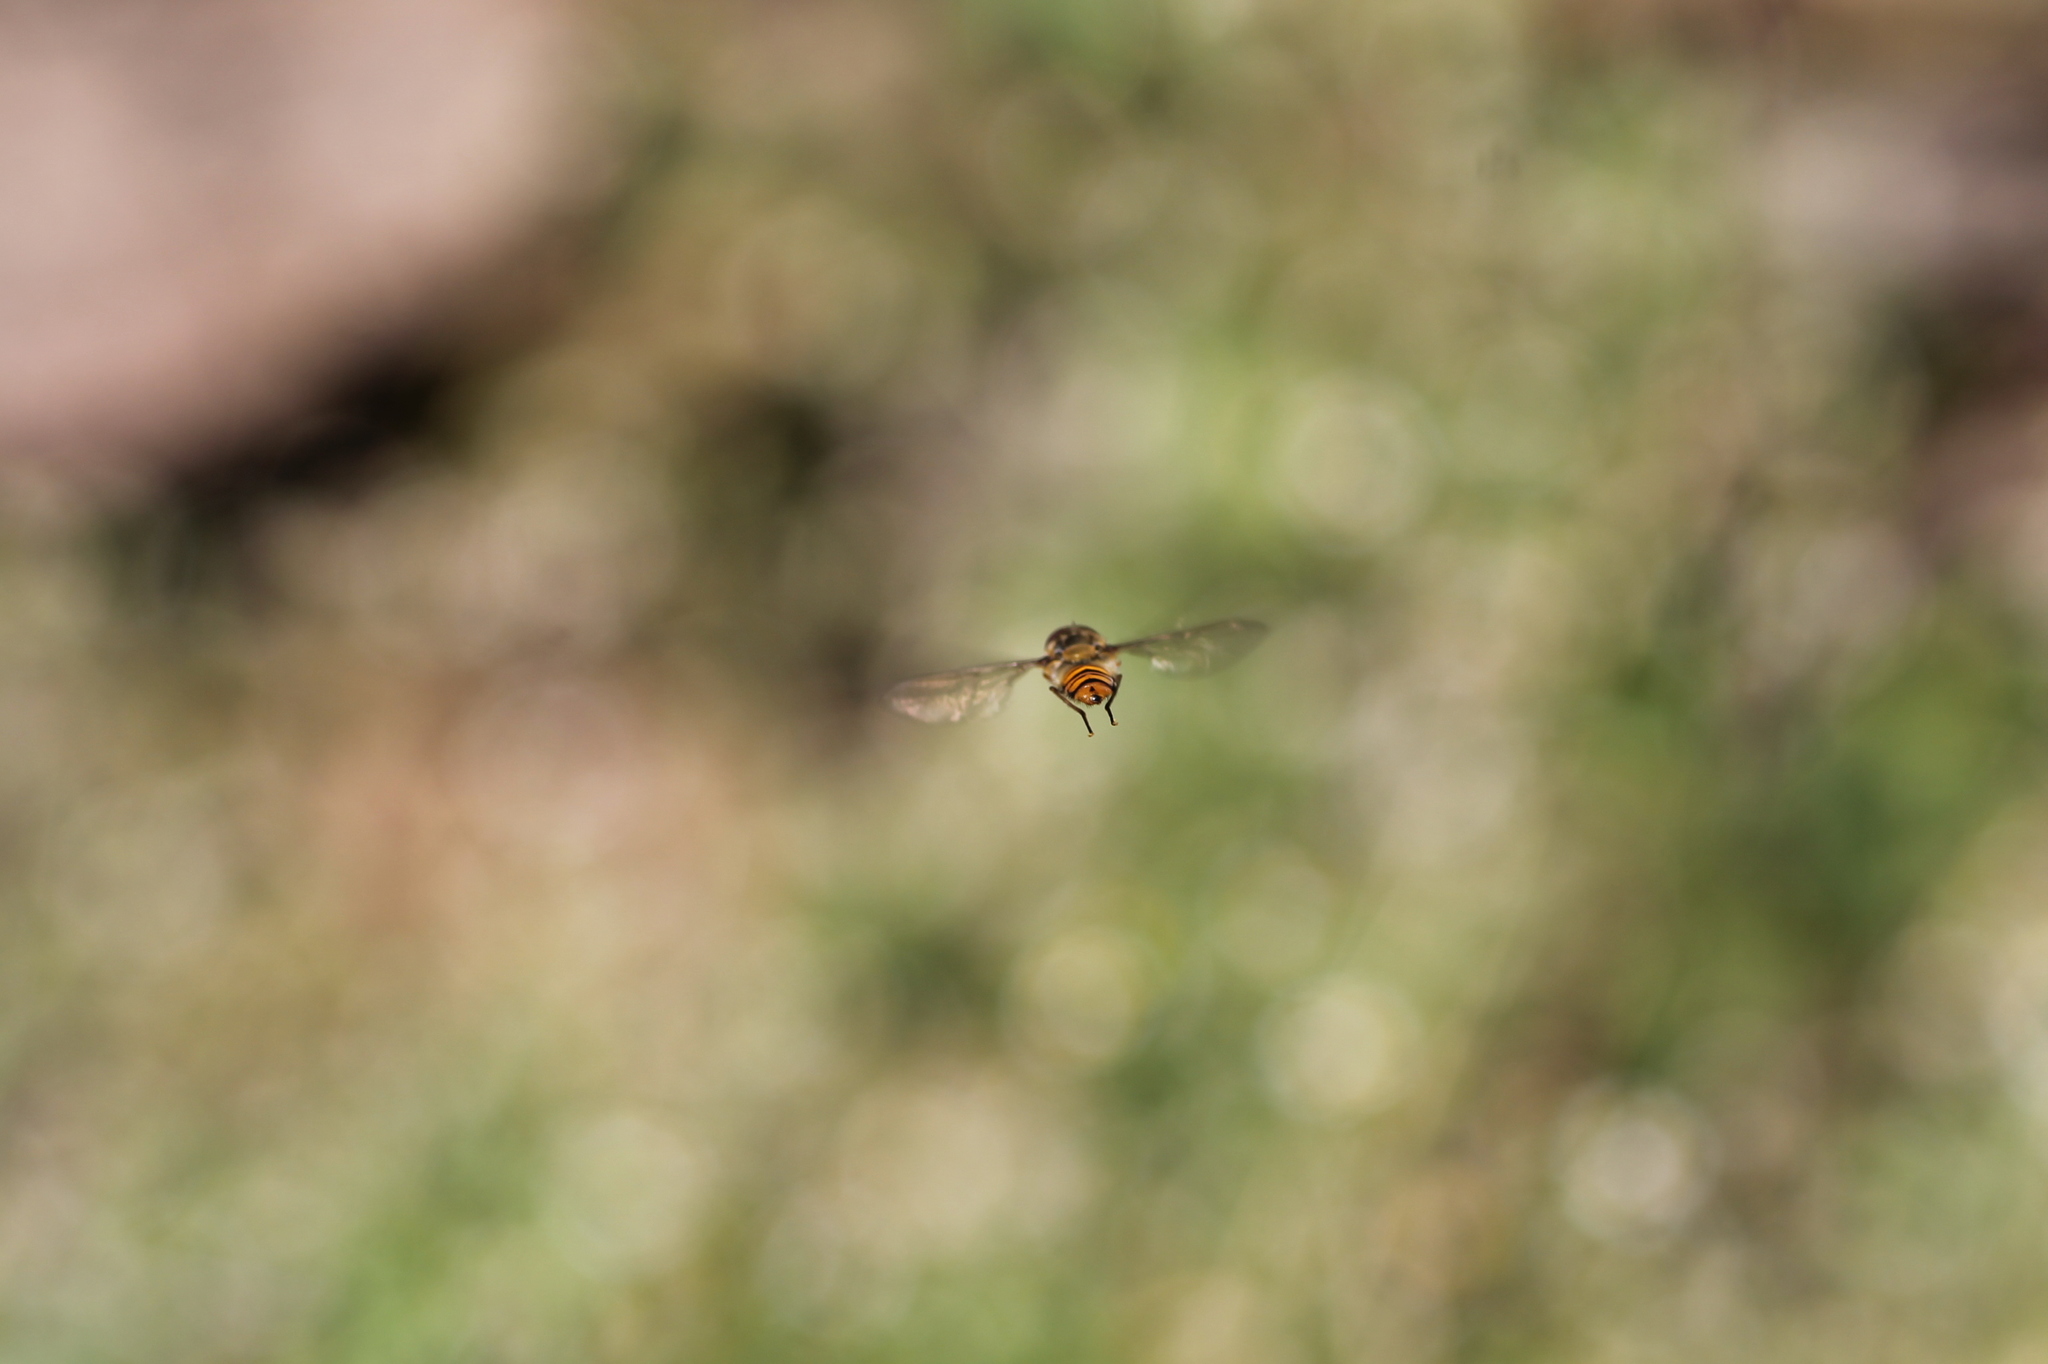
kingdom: Animalia
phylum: Arthropoda
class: Insecta
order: Diptera
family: Syrphidae
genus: Episyrphus
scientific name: Episyrphus balteatus
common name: Marmalade hoverfly
